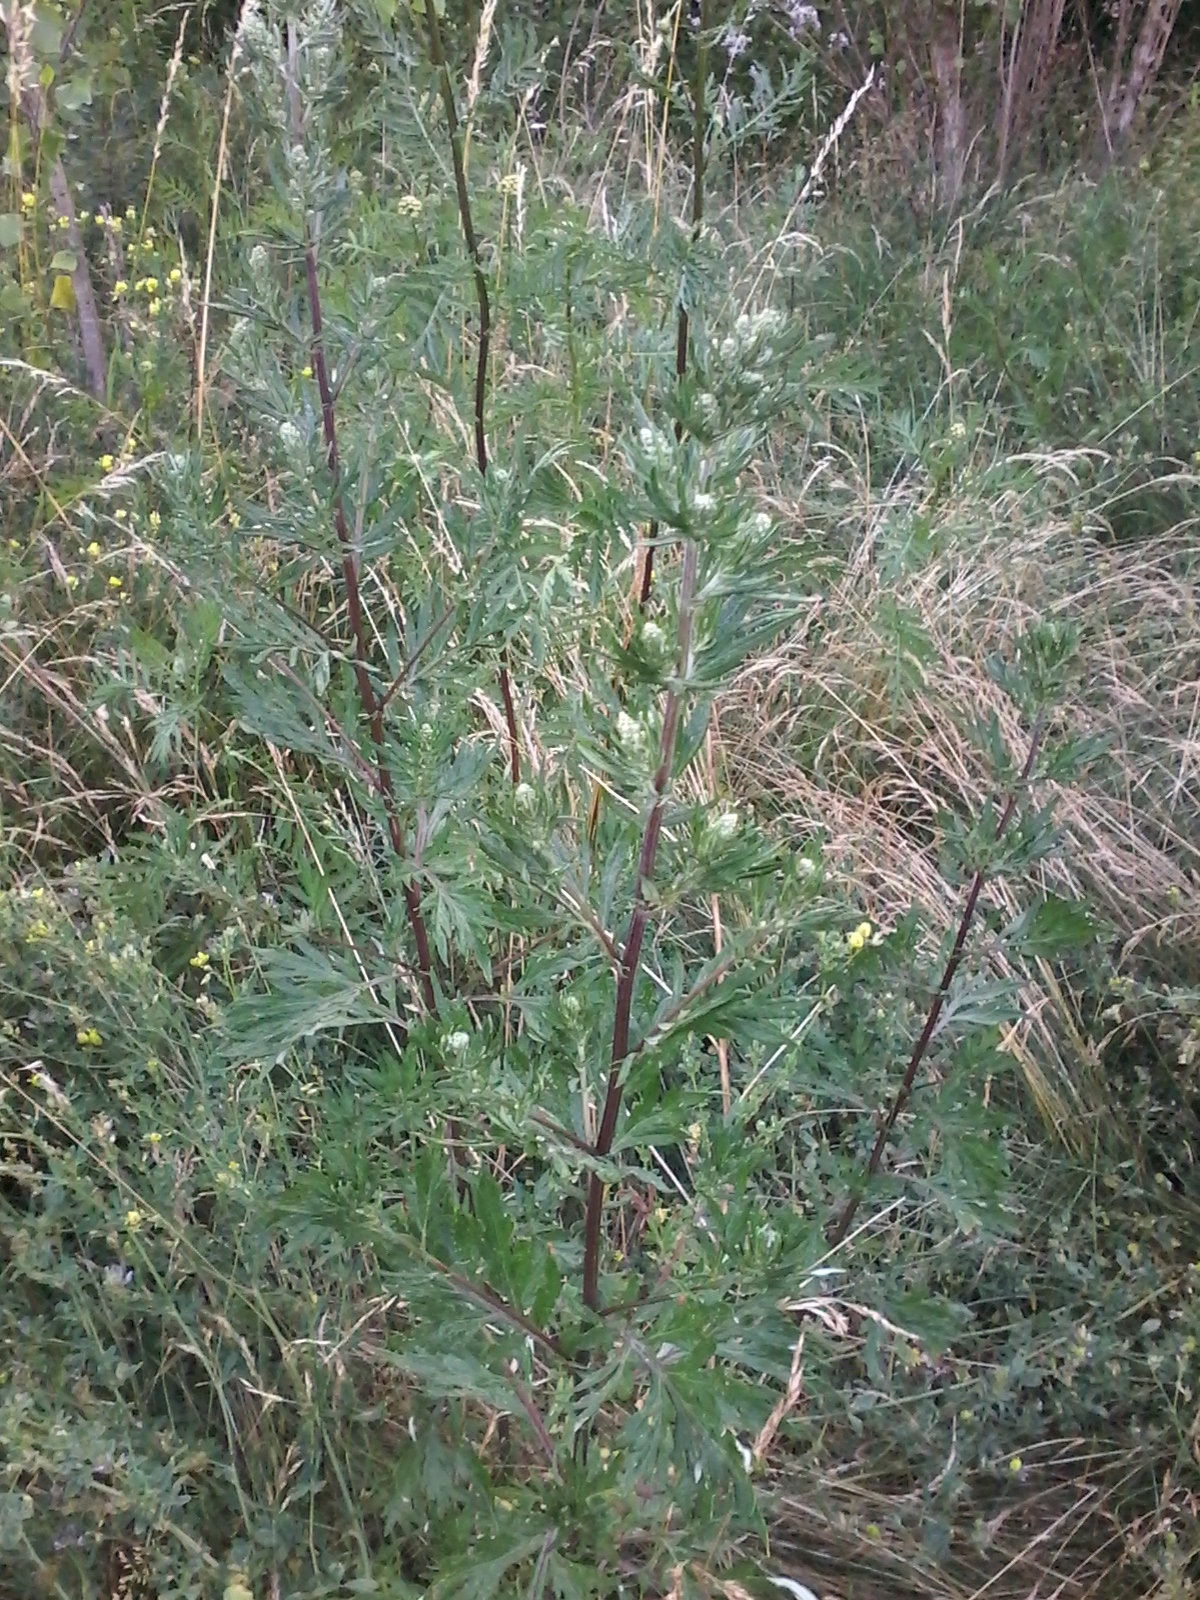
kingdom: Plantae
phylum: Tracheophyta
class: Magnoliopsida
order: Asterales
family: Asteraceae
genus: Artemisia
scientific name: Artemisia vulgaris
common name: Mugwort
